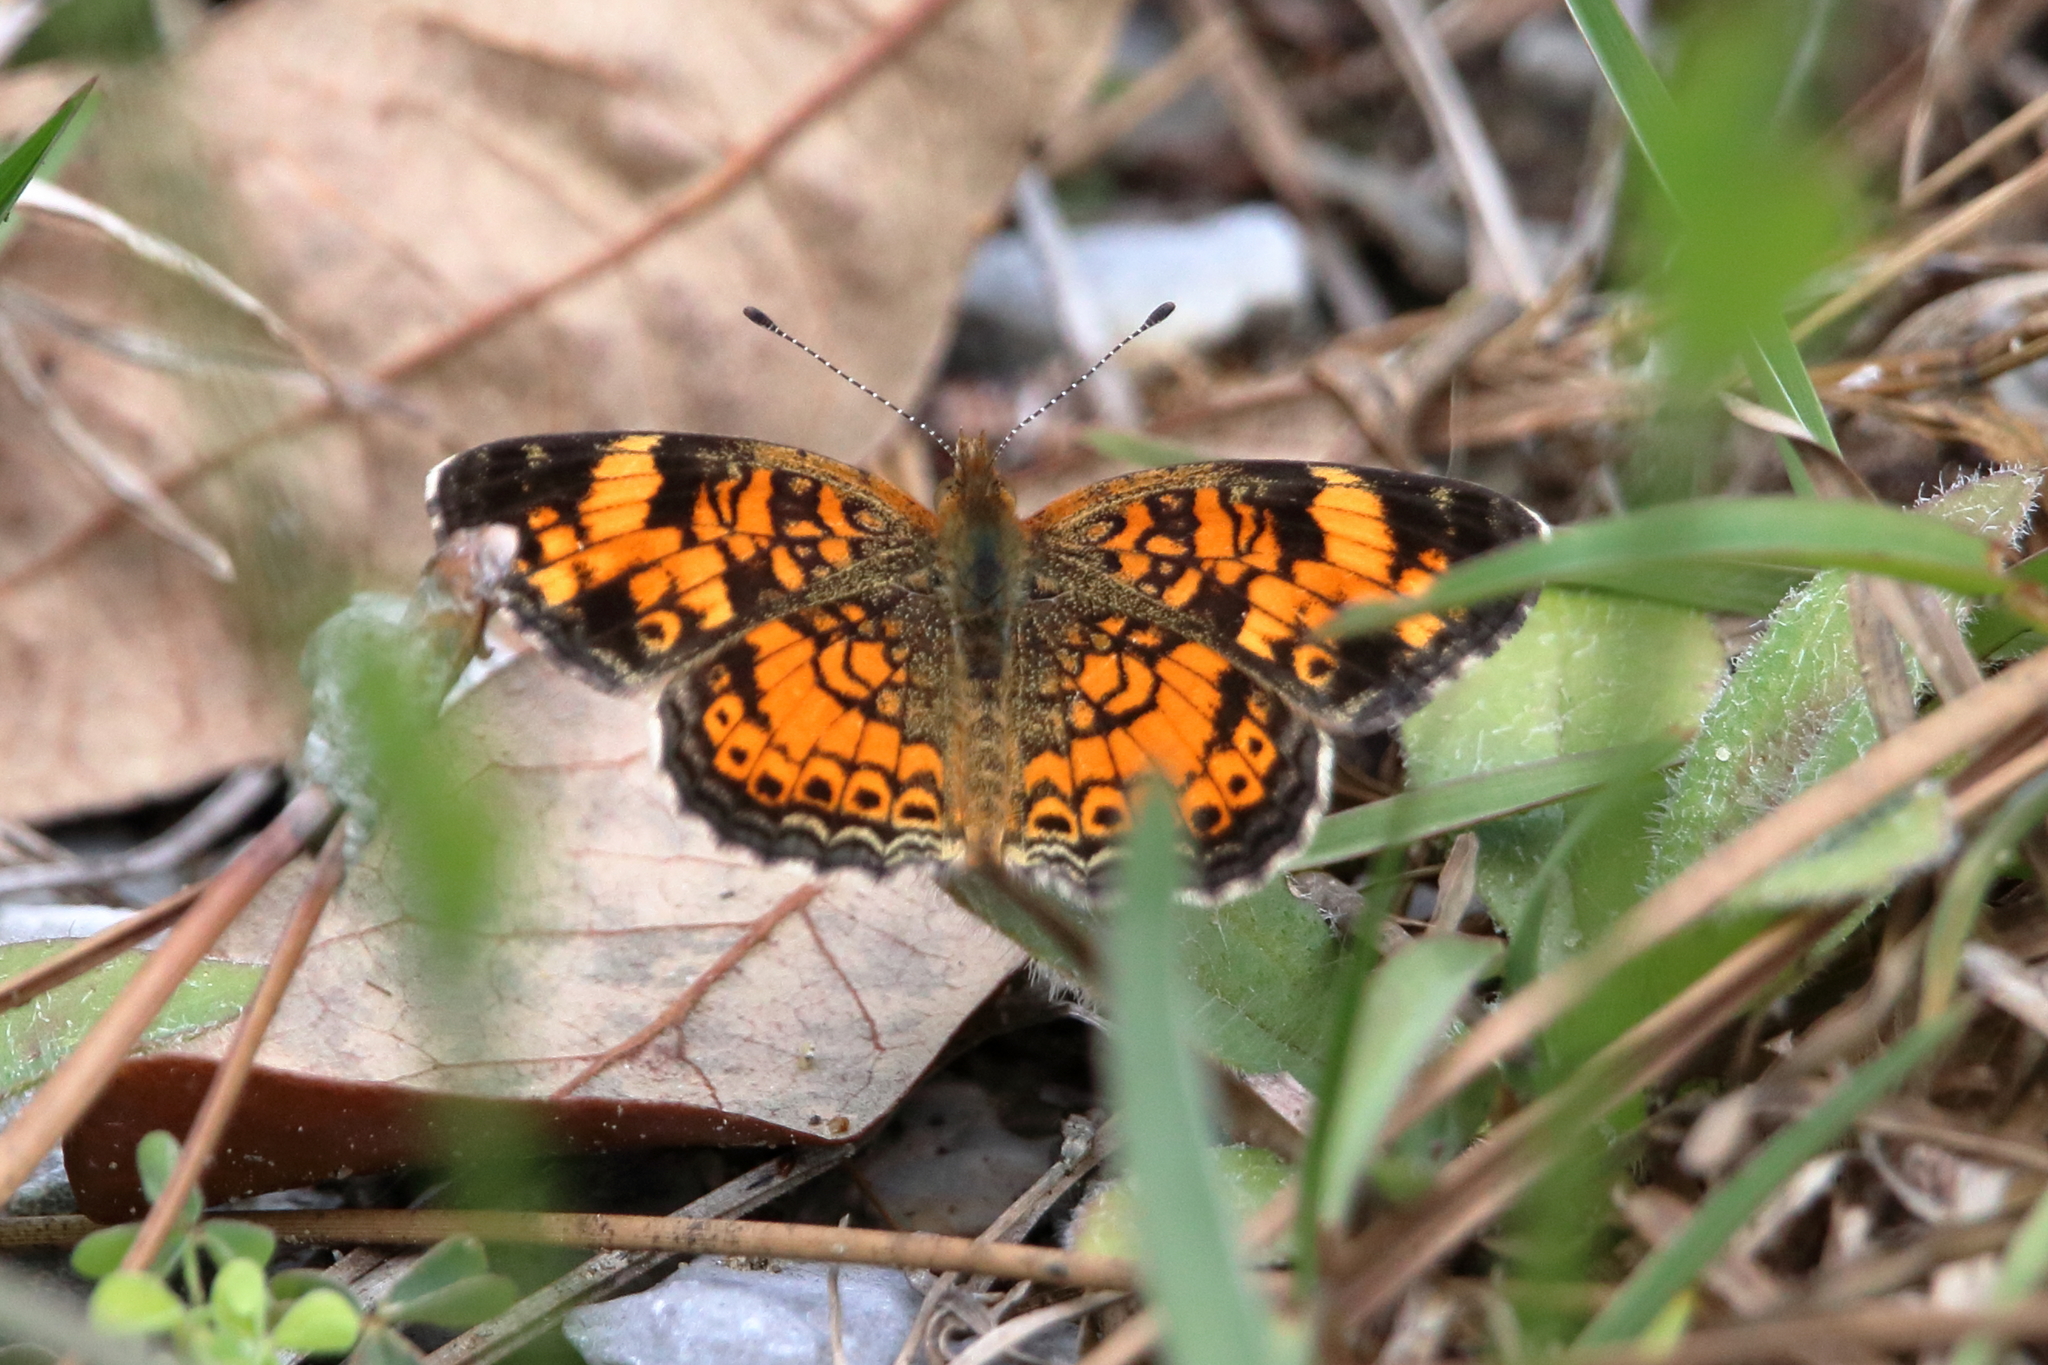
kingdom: Animalia
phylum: Arthropoda
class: Insecta
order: Lepidoptera
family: Nymphalidae
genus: Phyciodes
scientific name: Phyciodes tharos
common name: Pearl crescent
